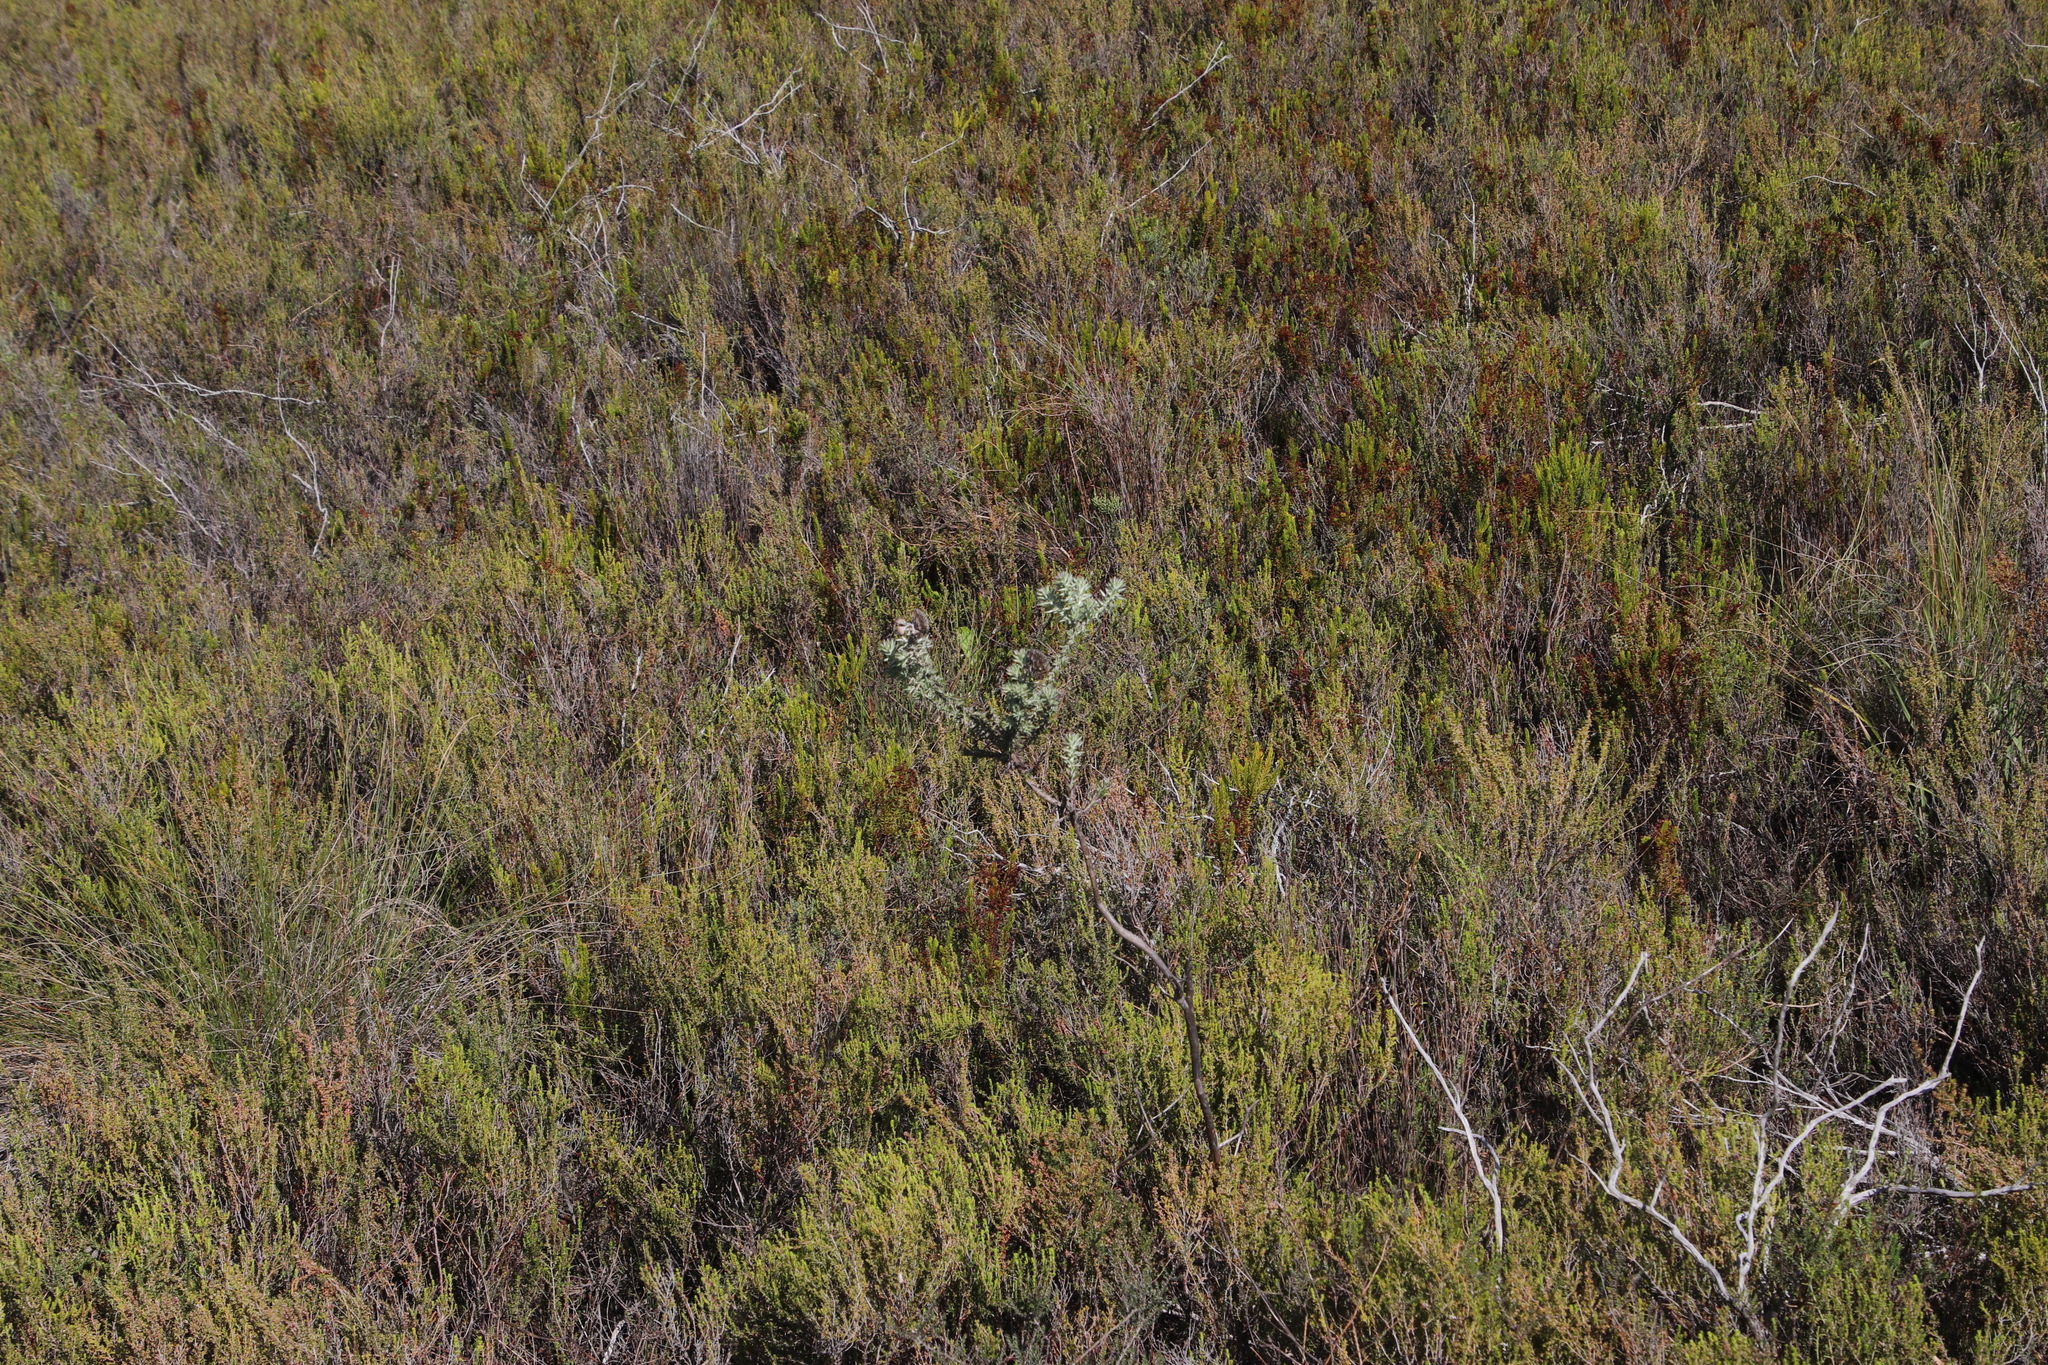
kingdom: Plantae
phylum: Tracheophyta
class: Magnoliopsida
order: Asterales
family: Asteraceae
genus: Metalasia
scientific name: Metalasia densa
